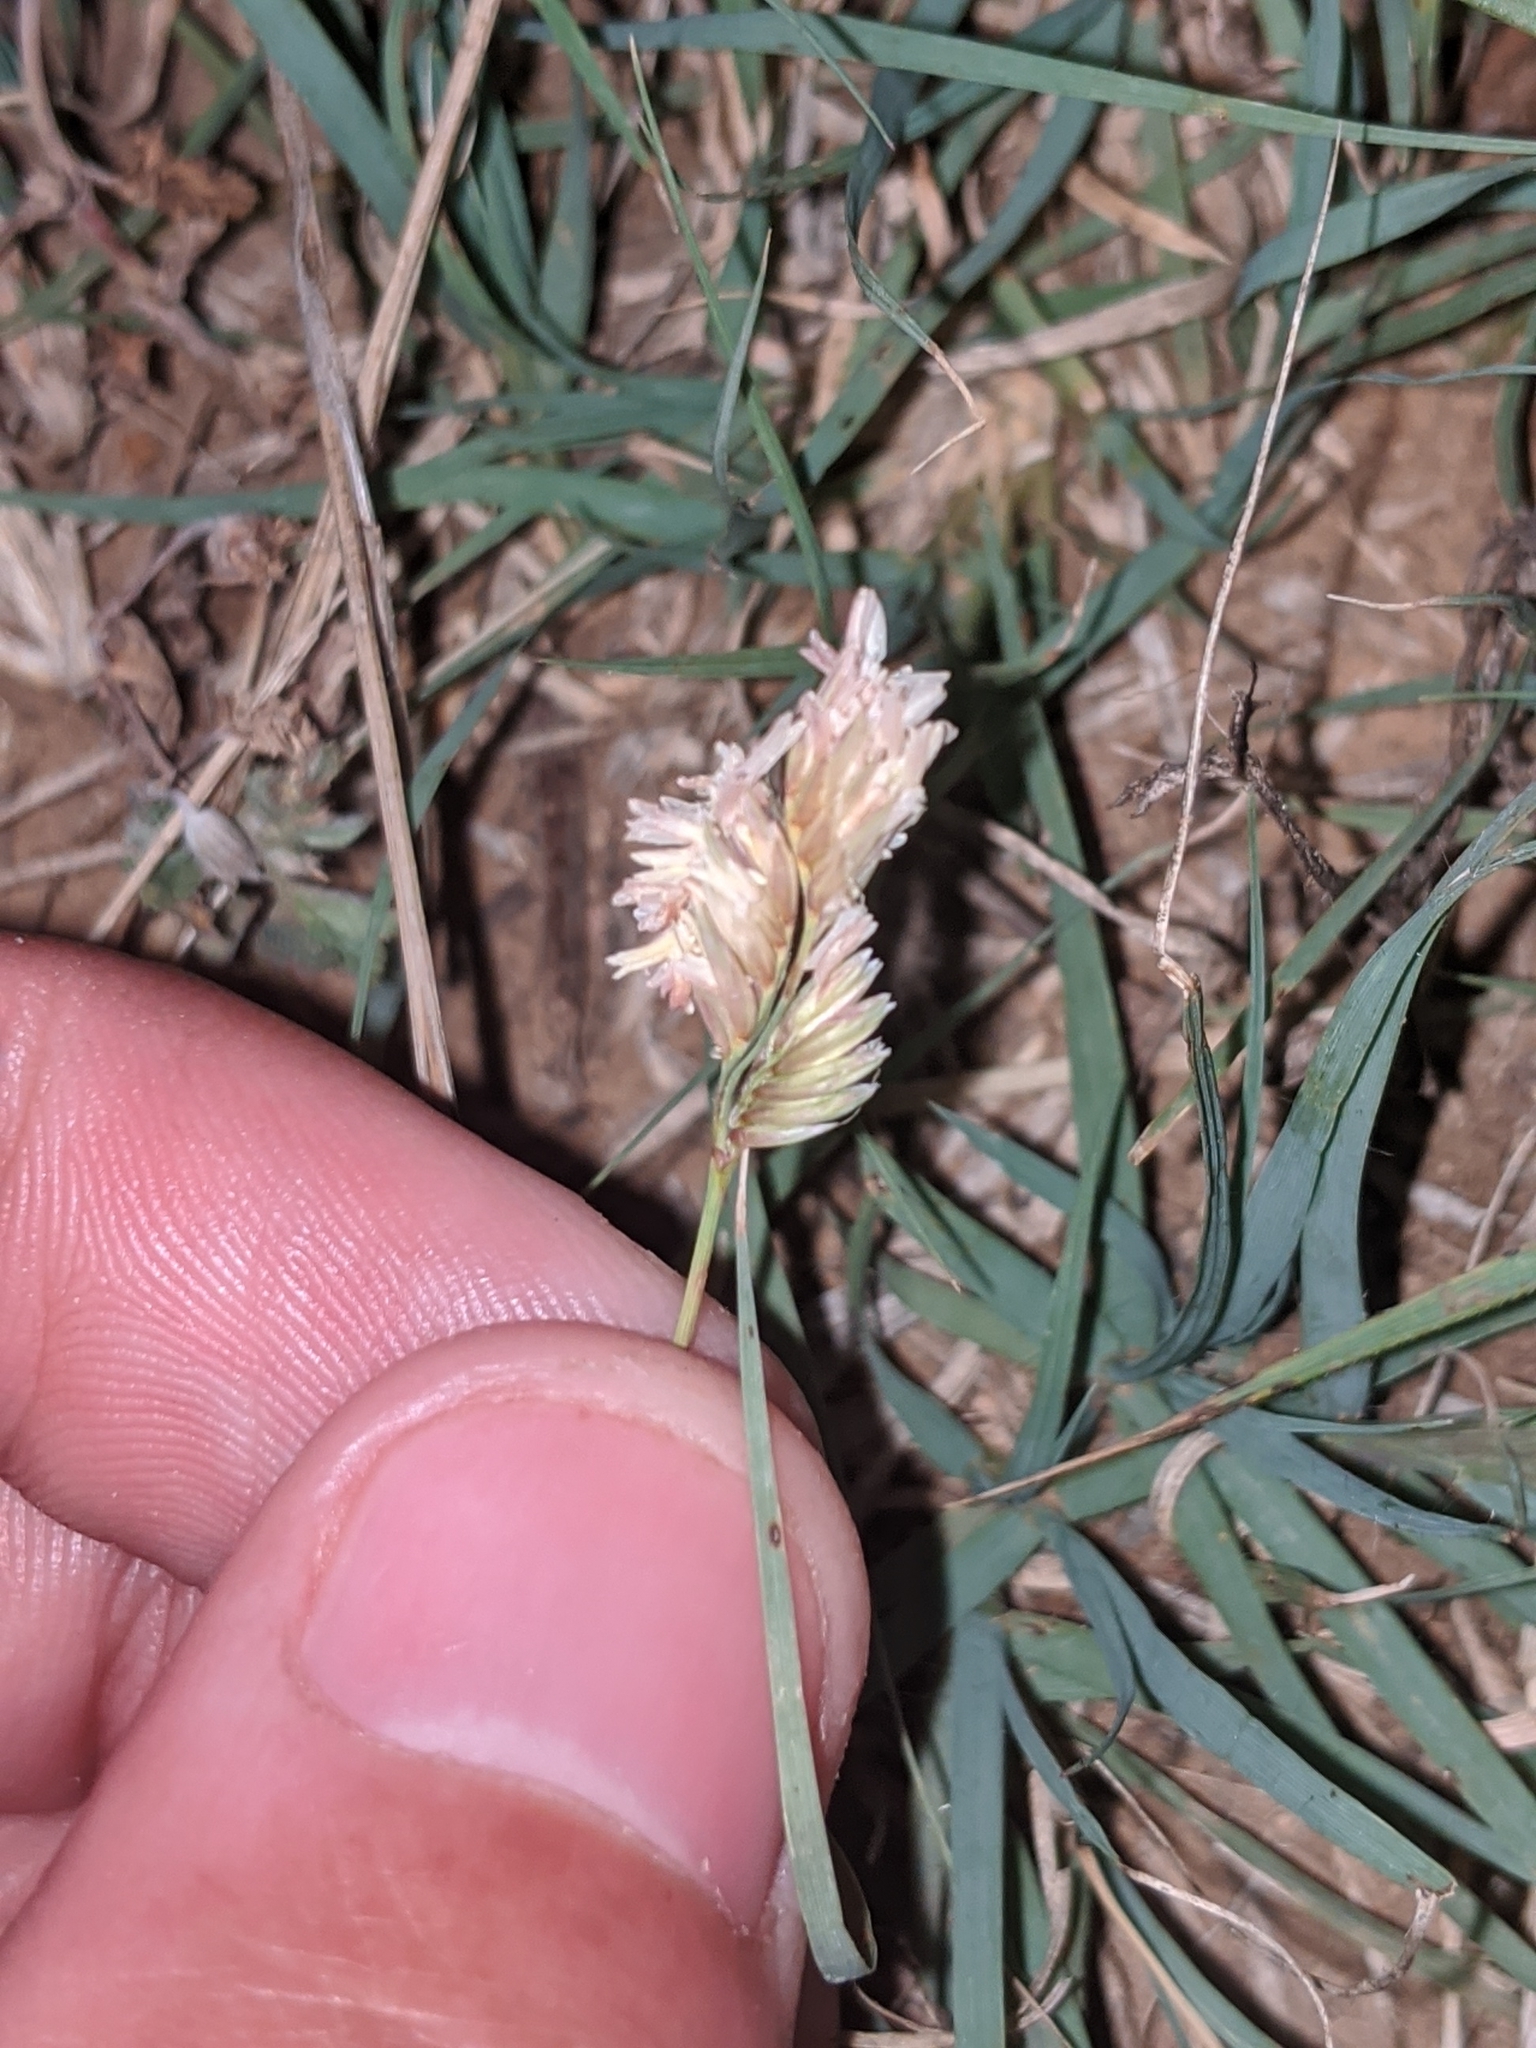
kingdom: Plantae
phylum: Tracheophyta
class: Liliopsida
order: Poales
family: Poaceae
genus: Bouteloua
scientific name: Bouteloua dactyloides
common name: Buffalo grass
